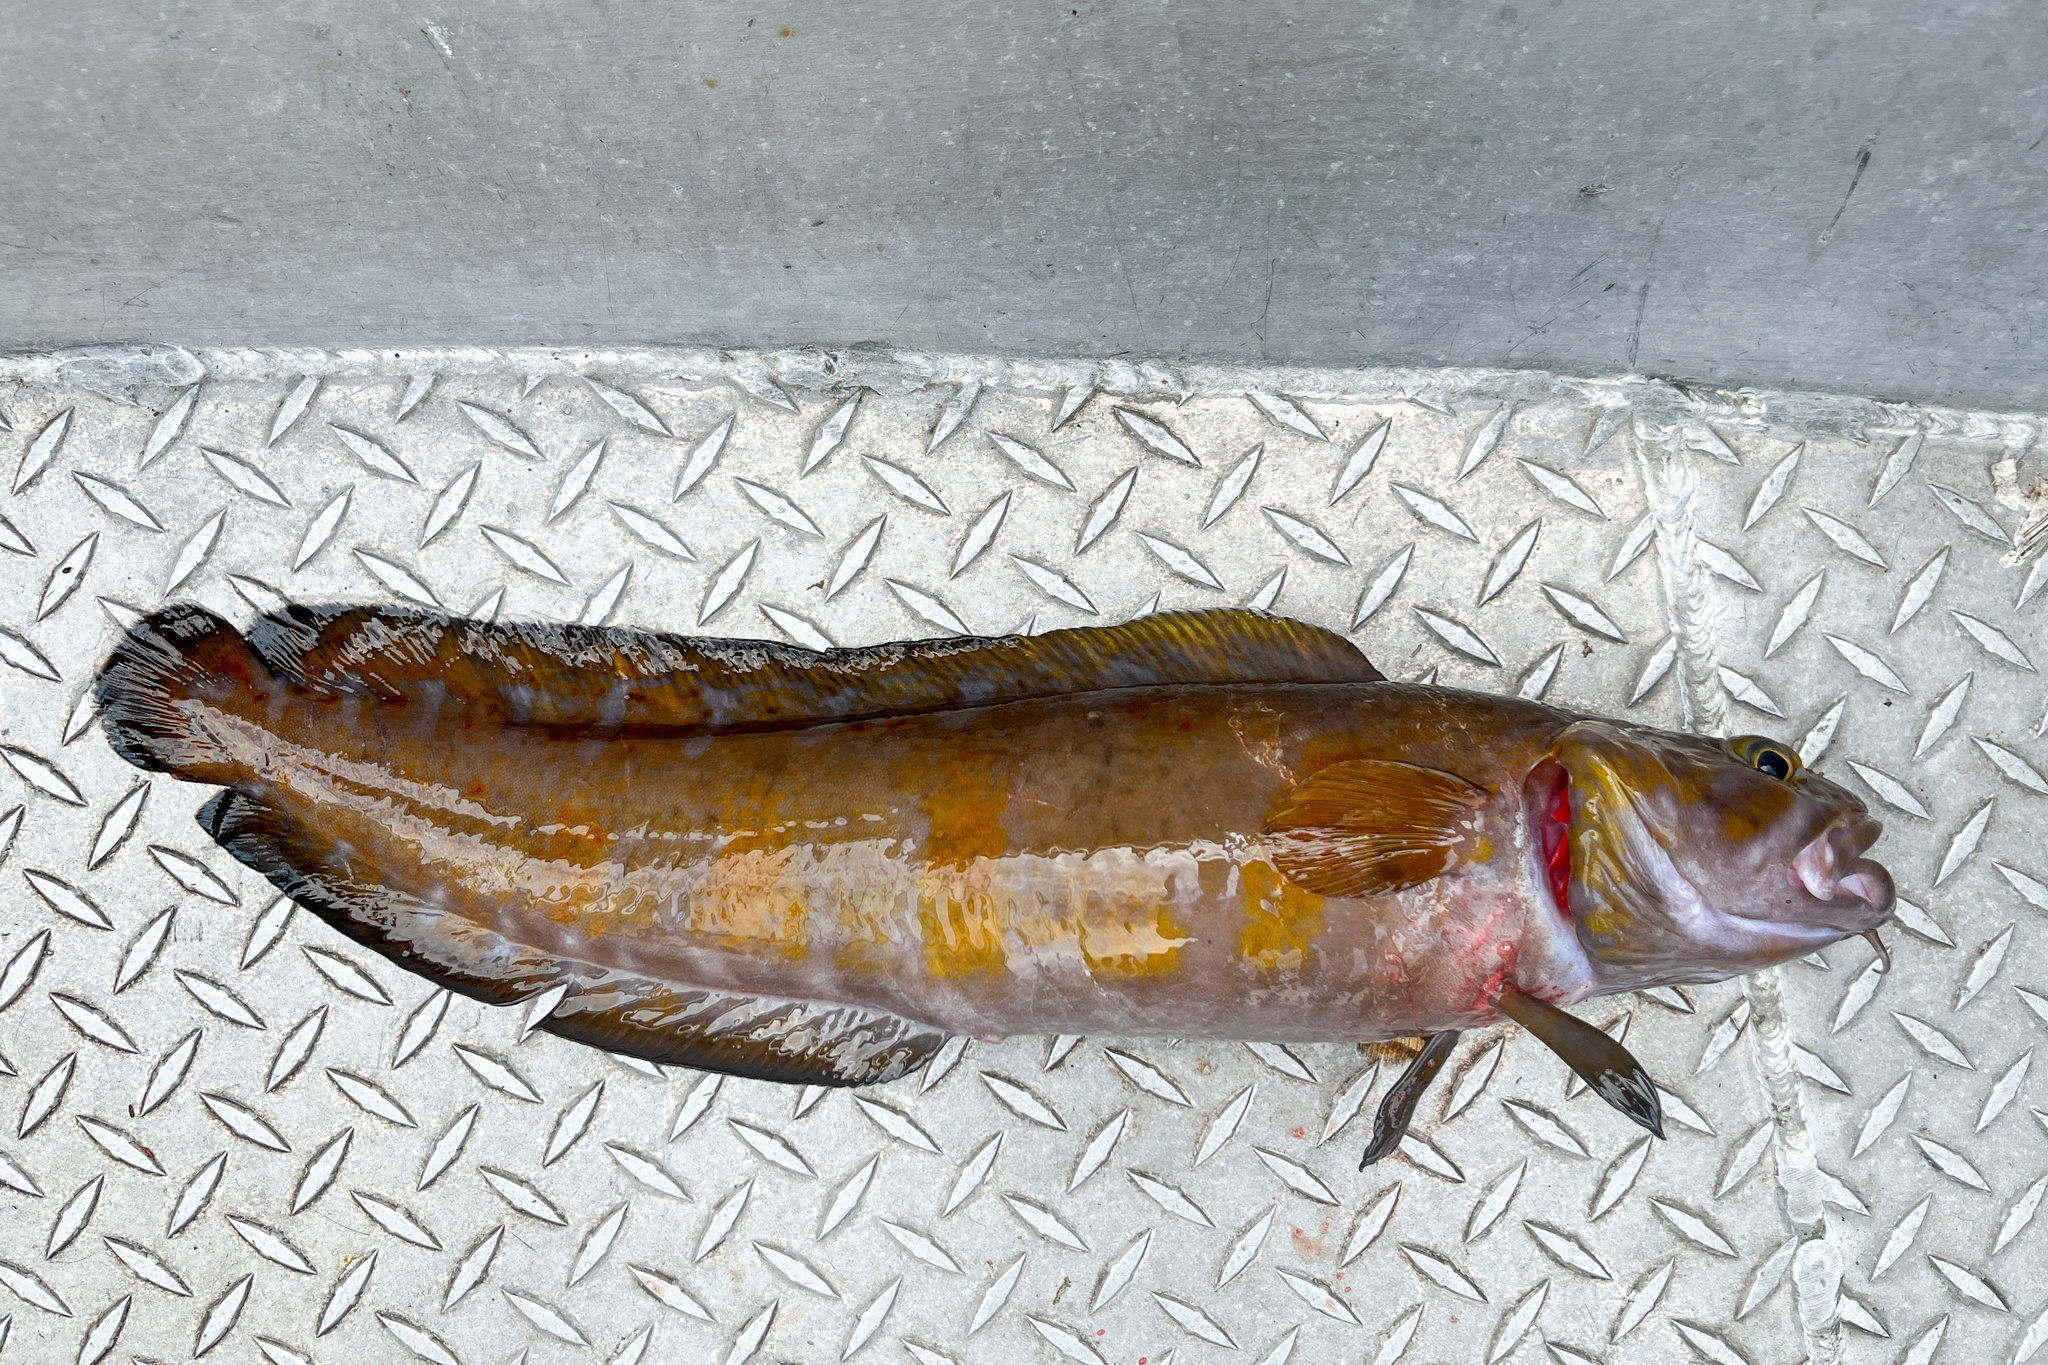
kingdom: Animalia
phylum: Chordata
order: Gadiformes
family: Lotidae
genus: Brosme
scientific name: Brosme brosme
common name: Cusk
